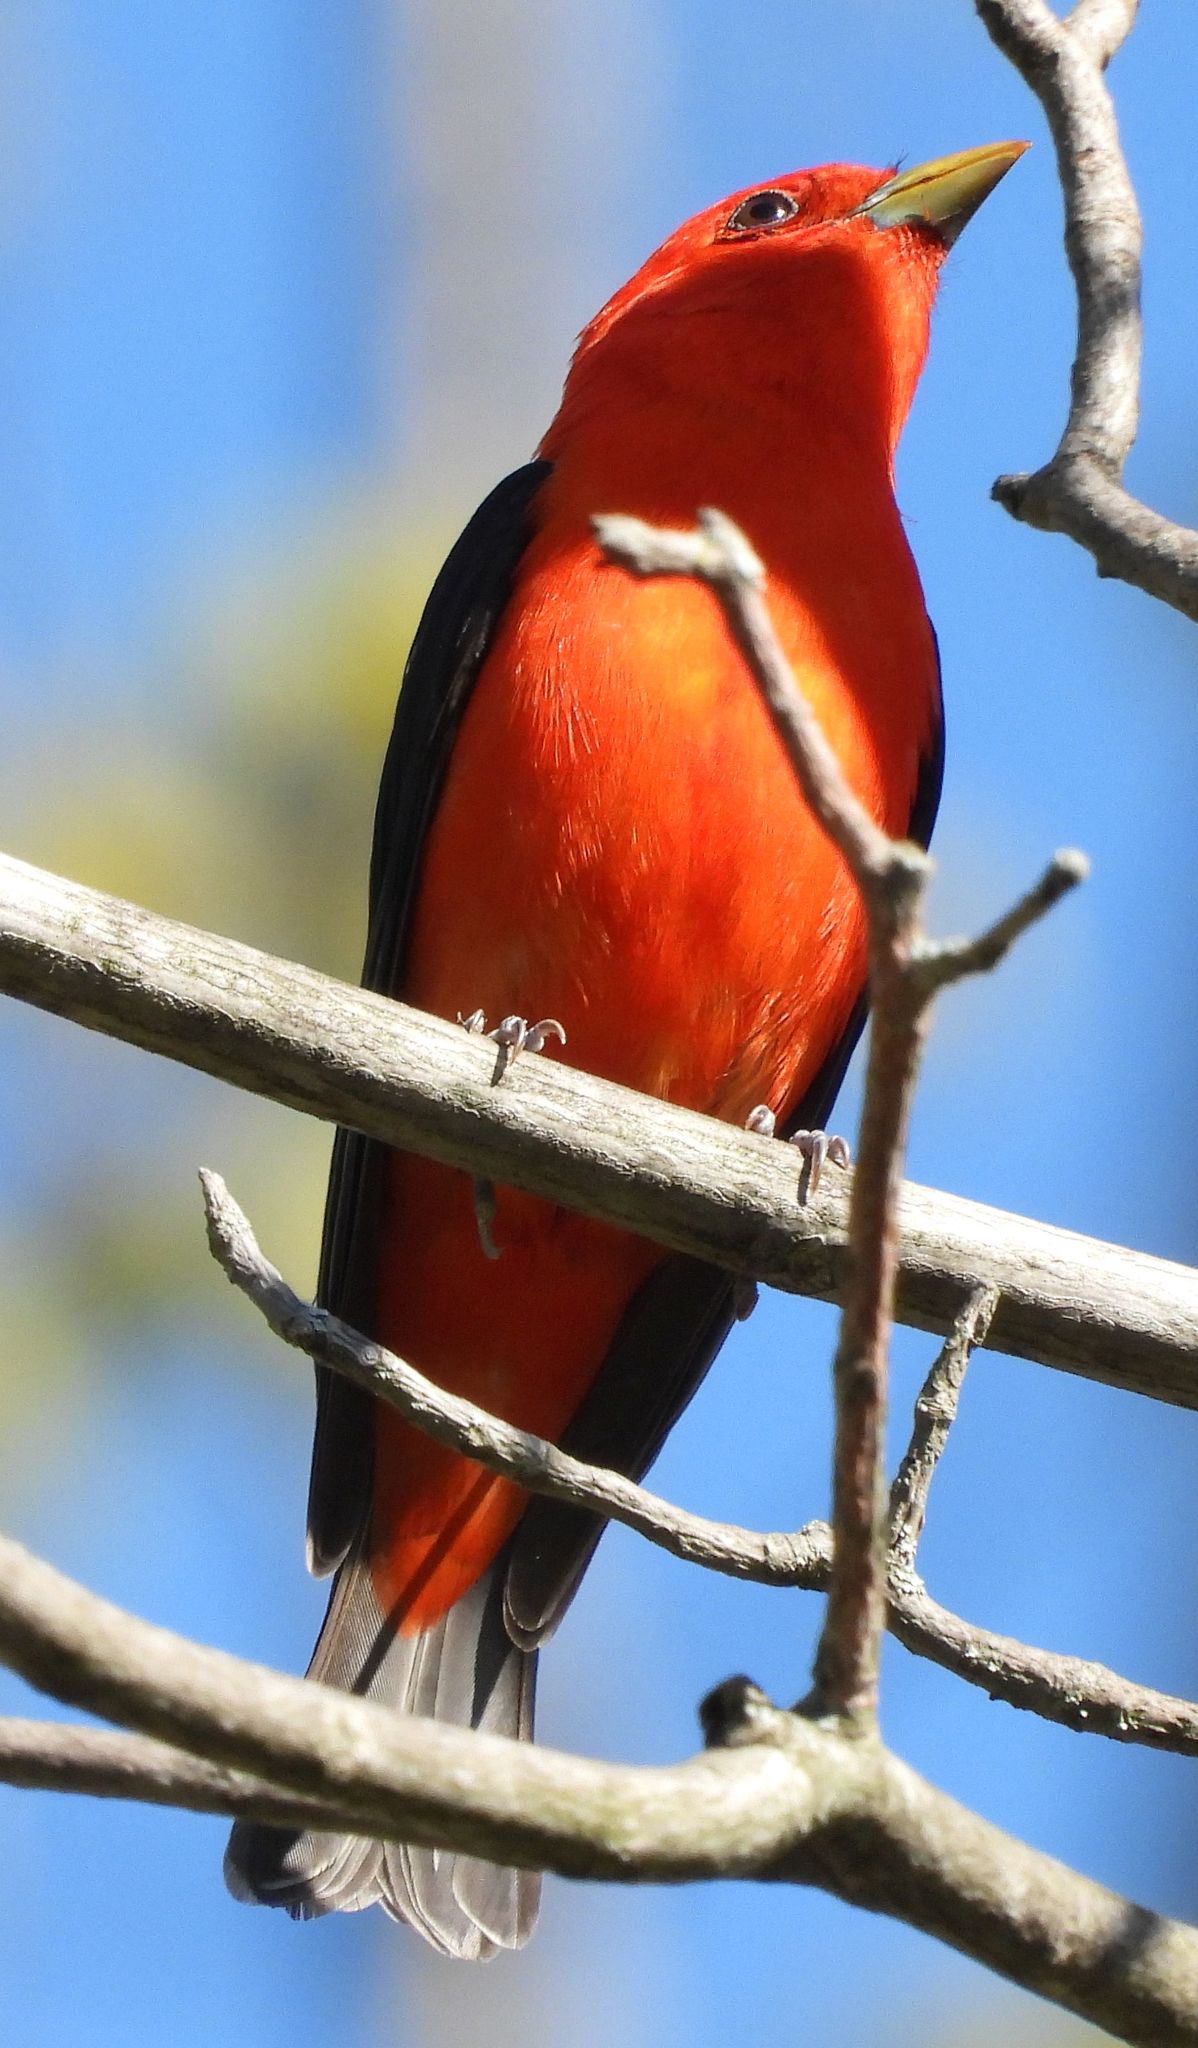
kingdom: Animalia
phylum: Chordata
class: Aves
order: Passeriformes
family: Cardinalidae
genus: Piranga
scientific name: Piranga olivacea
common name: Scarlet tanager
